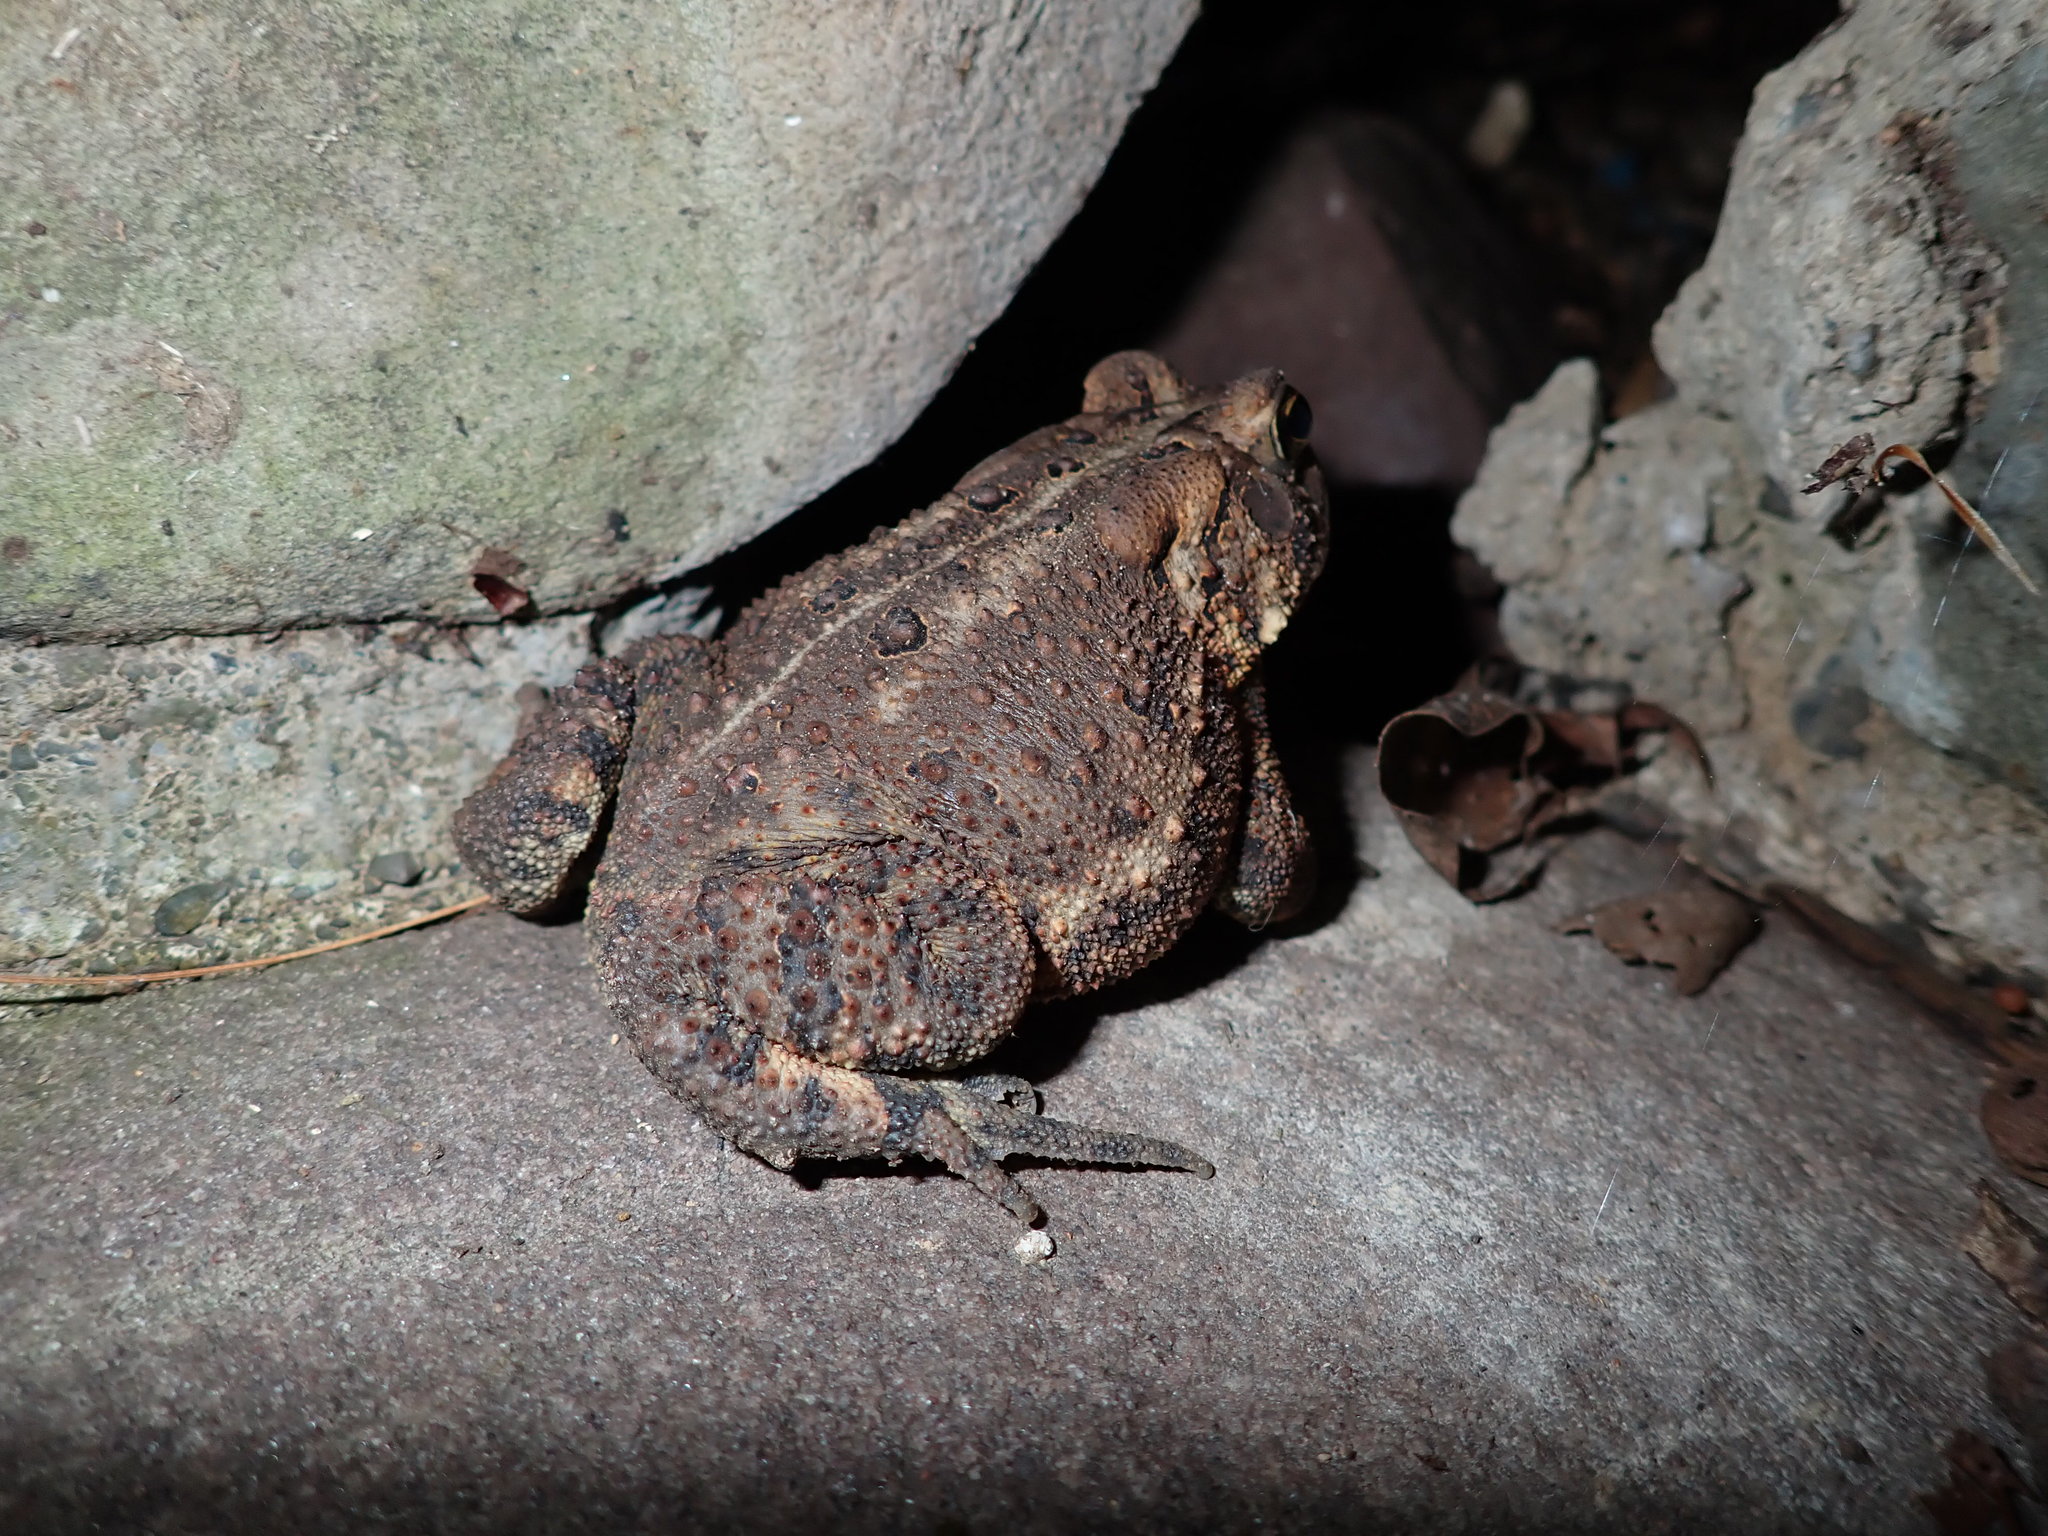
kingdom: Animalia
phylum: Chordata
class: Amphibia
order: Anura
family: Bufonidae
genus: Anaxyrus
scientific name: Anaxyrus americanus
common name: American toad
